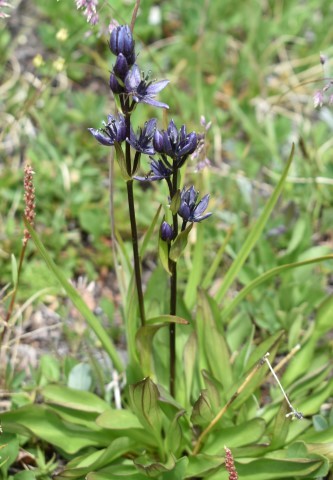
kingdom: Plantae
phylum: Tracheophyta
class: Magnoliopsida
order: Gentianales
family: Gentianaceae
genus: Swertia
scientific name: Swertia perennis
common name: Alpine bog swertia
